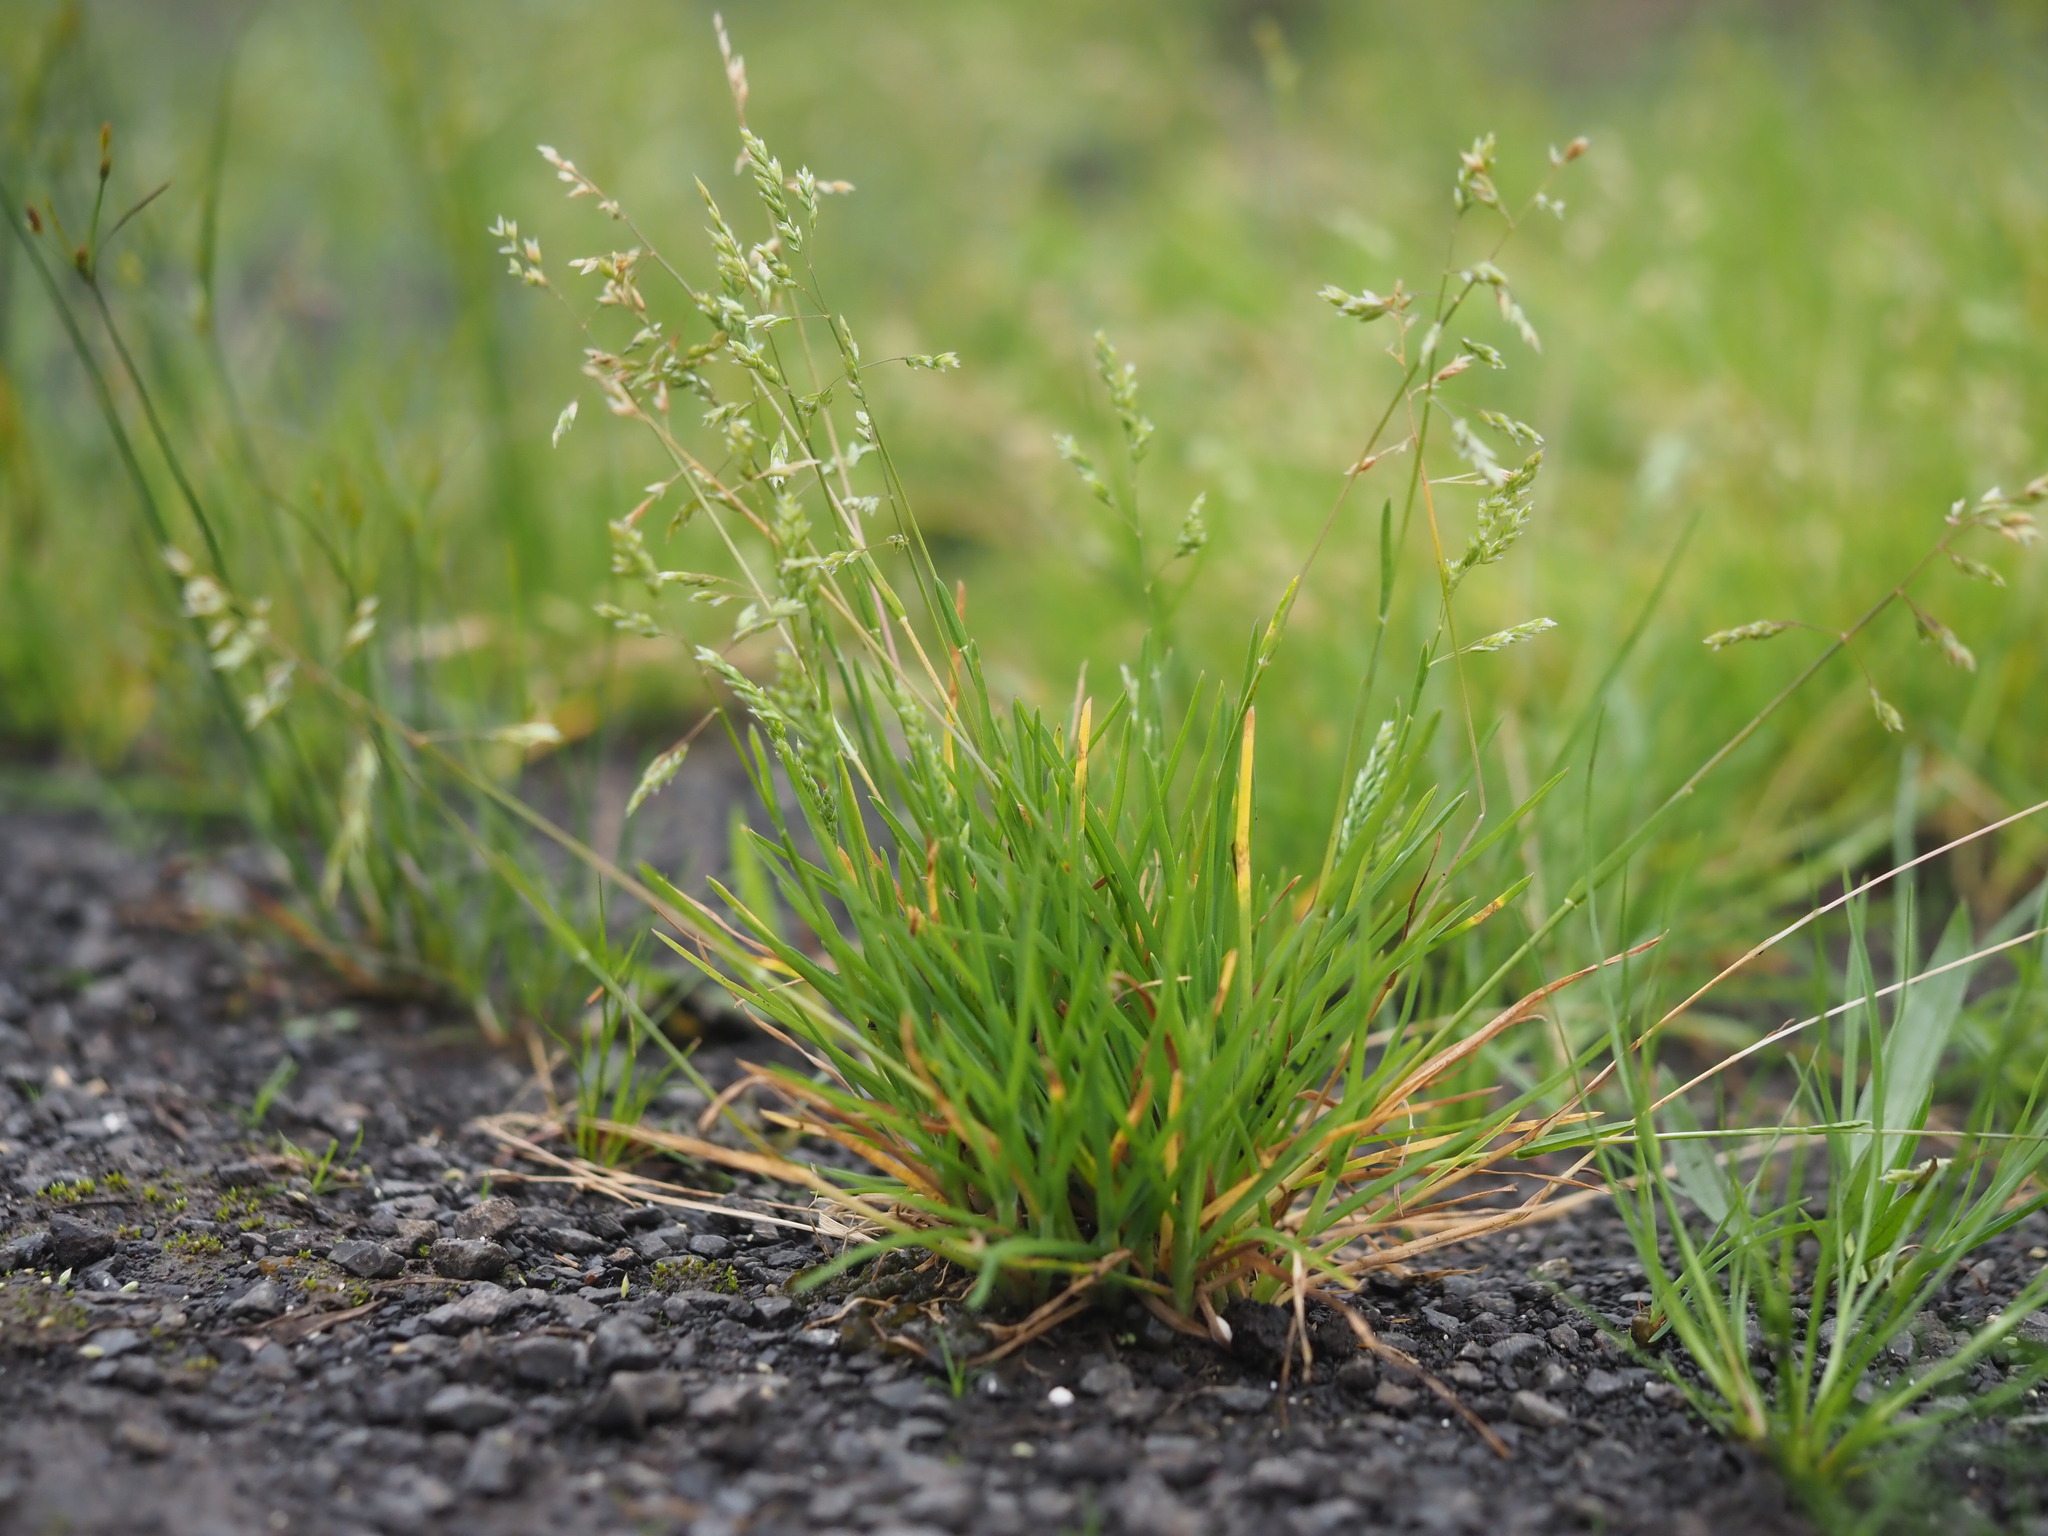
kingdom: Plantae
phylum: Tracheophyta
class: Liliopsida
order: Poales
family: Poaceae
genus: Poa
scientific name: Poa annua
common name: Annual bluegrass
